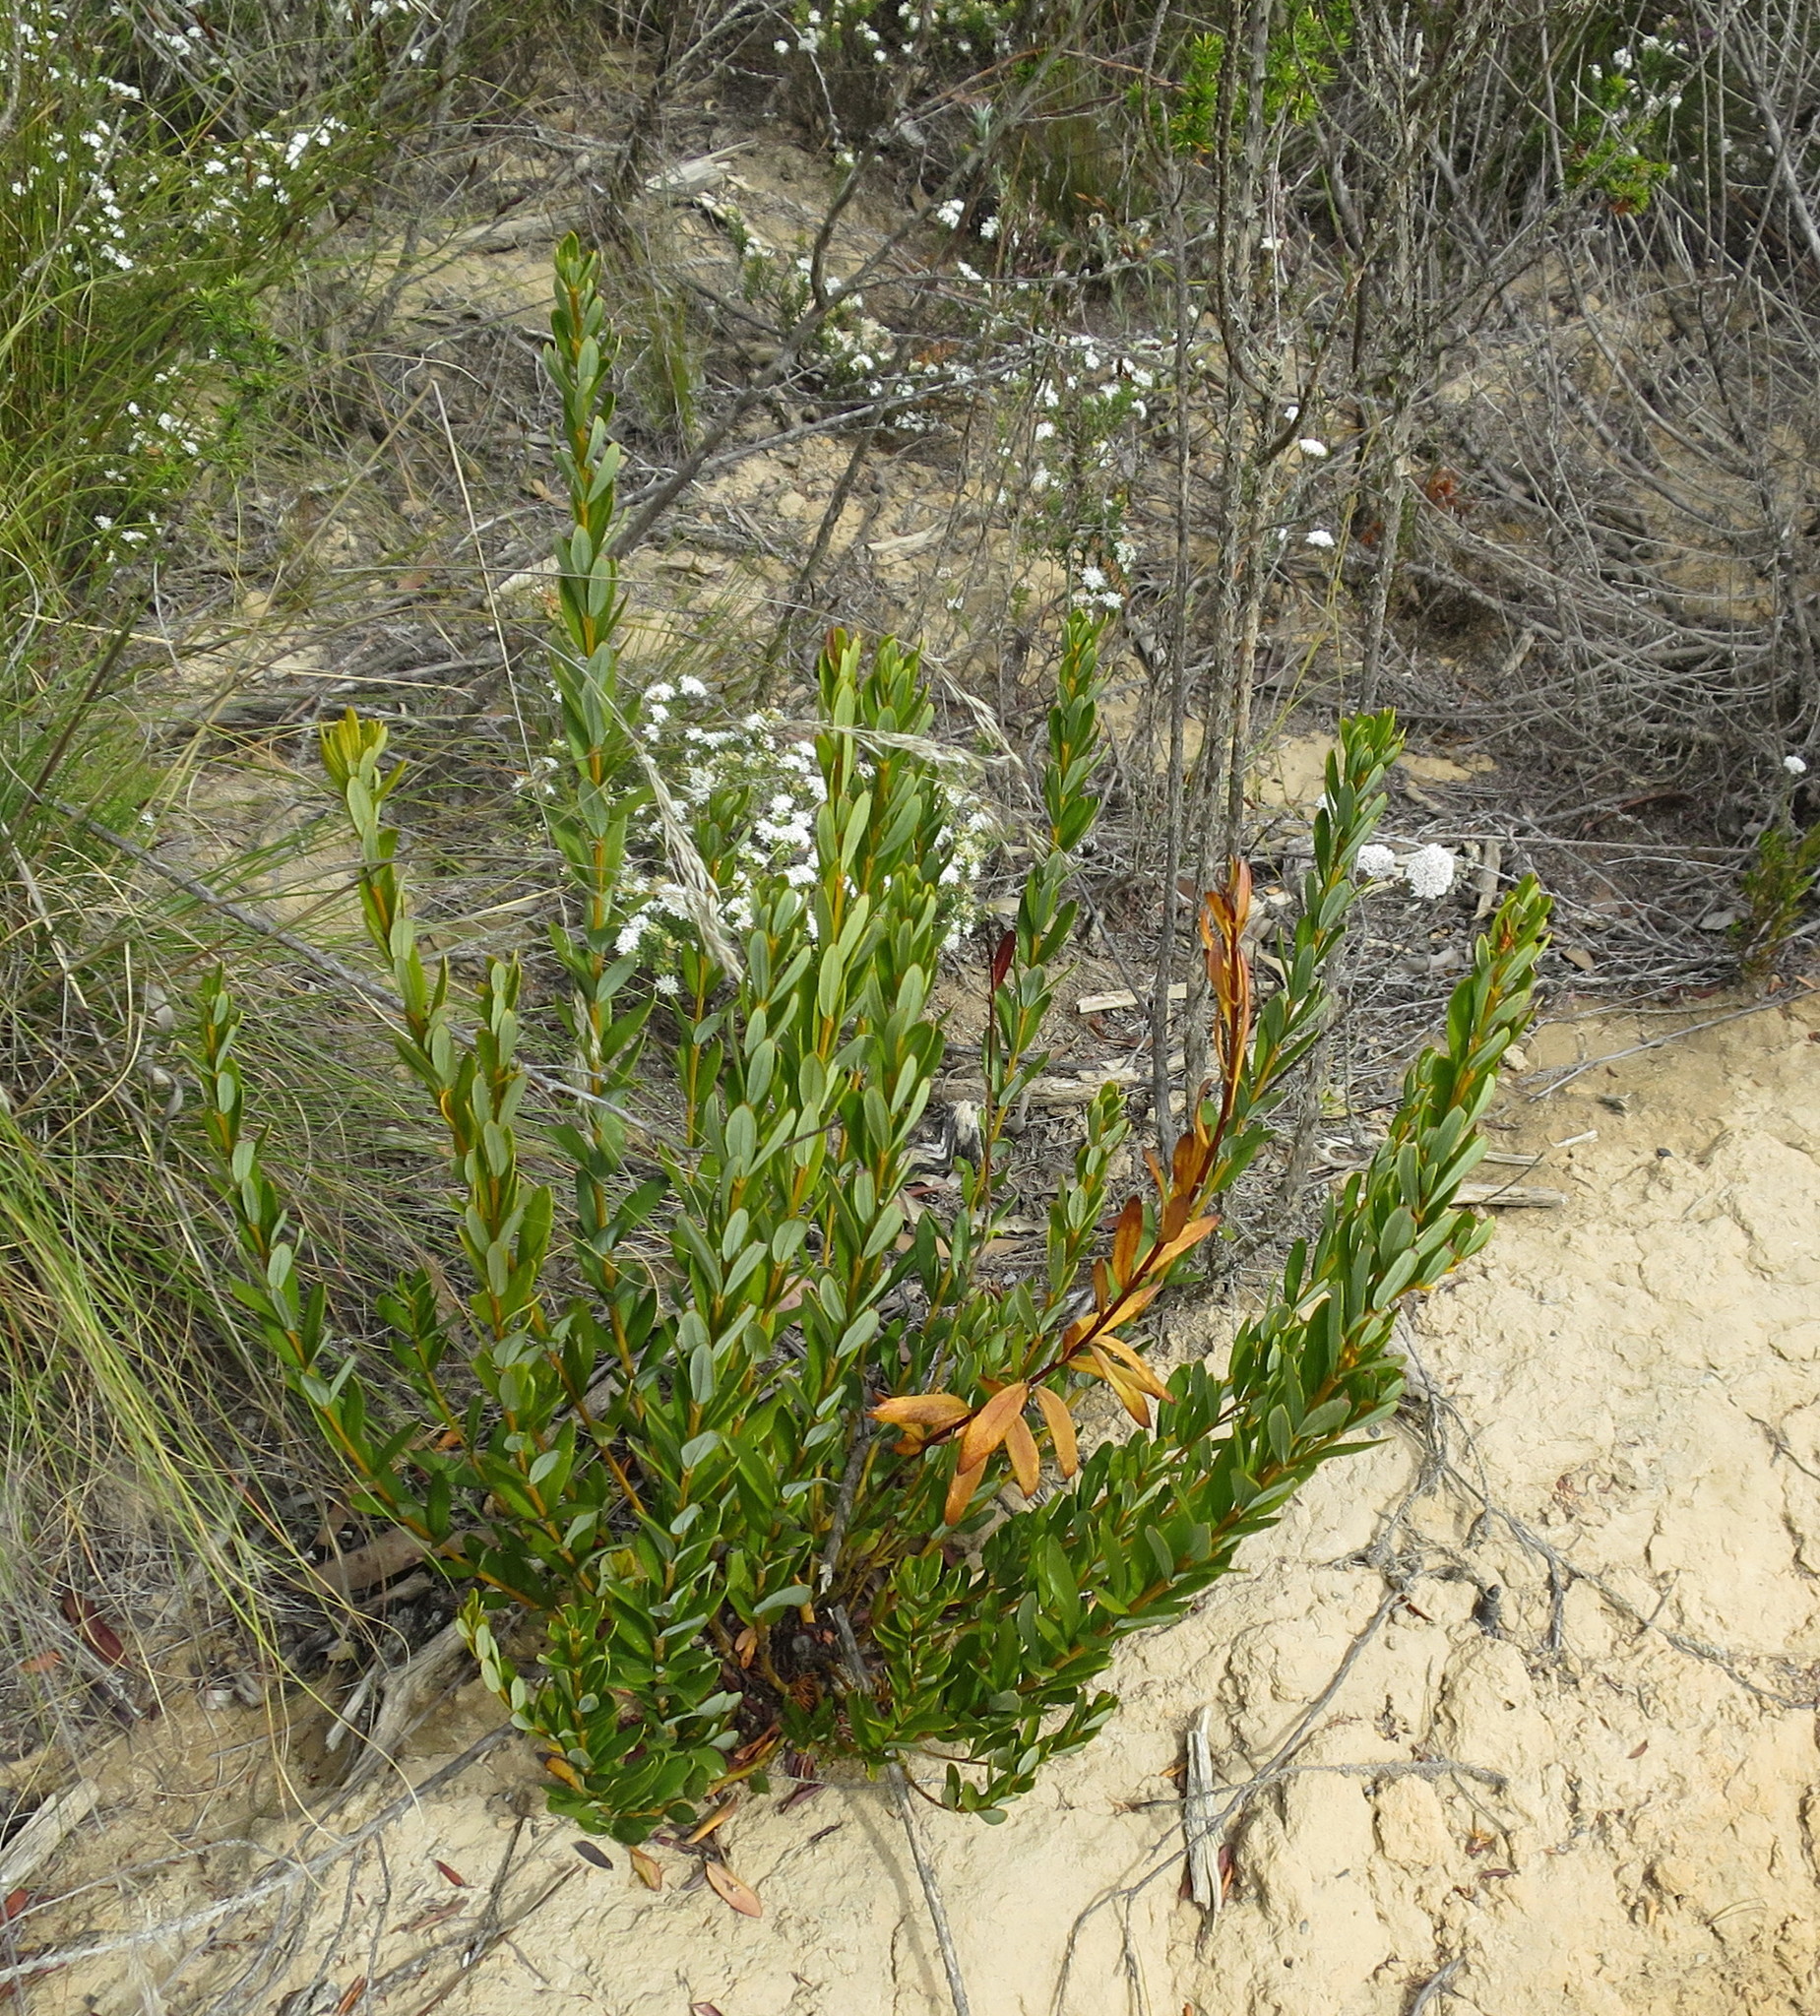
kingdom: Plantae
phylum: Tracheophyta
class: Magnoliopsida
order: Fabales
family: Fabaceae
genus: Cyclopia
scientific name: Cyclopia intermedia
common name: Mountain tea
